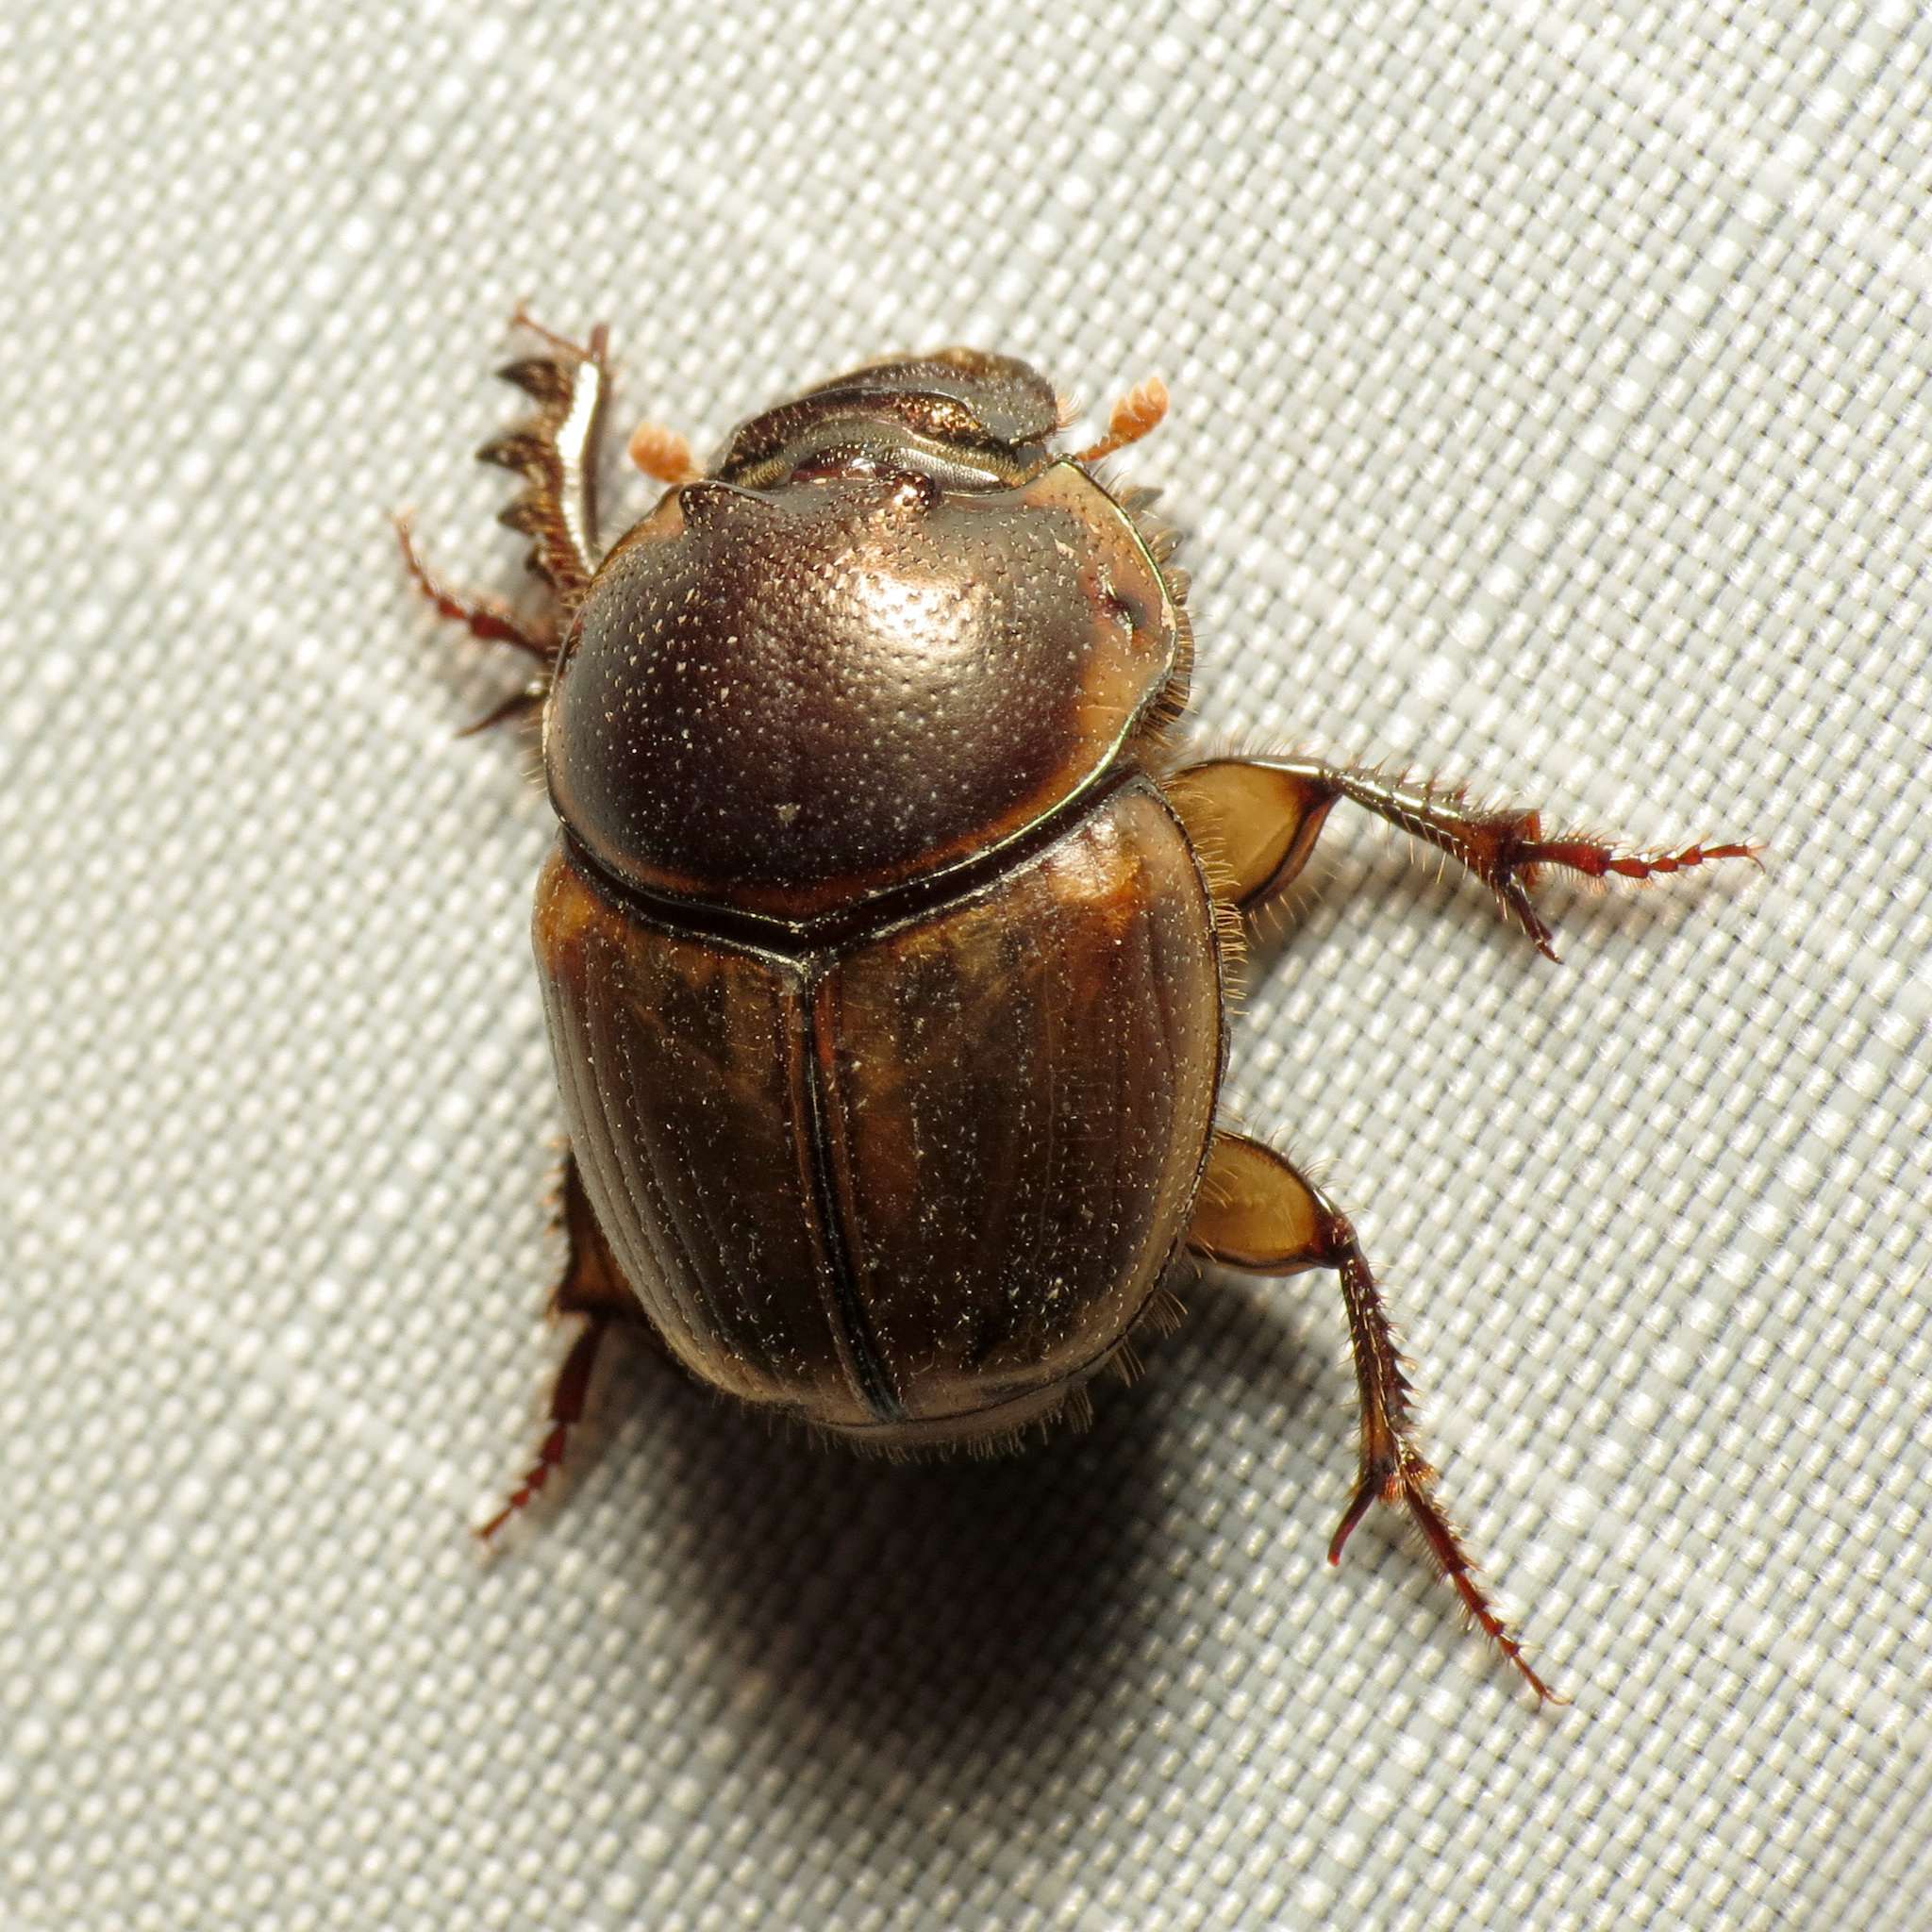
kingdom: Animalia
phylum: Arthropoda
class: Insecta
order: Coleoptera
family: Scarabaeidae
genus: Digitonthophagus
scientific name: Digitonthophagus gazella
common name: Brown dung beetle
